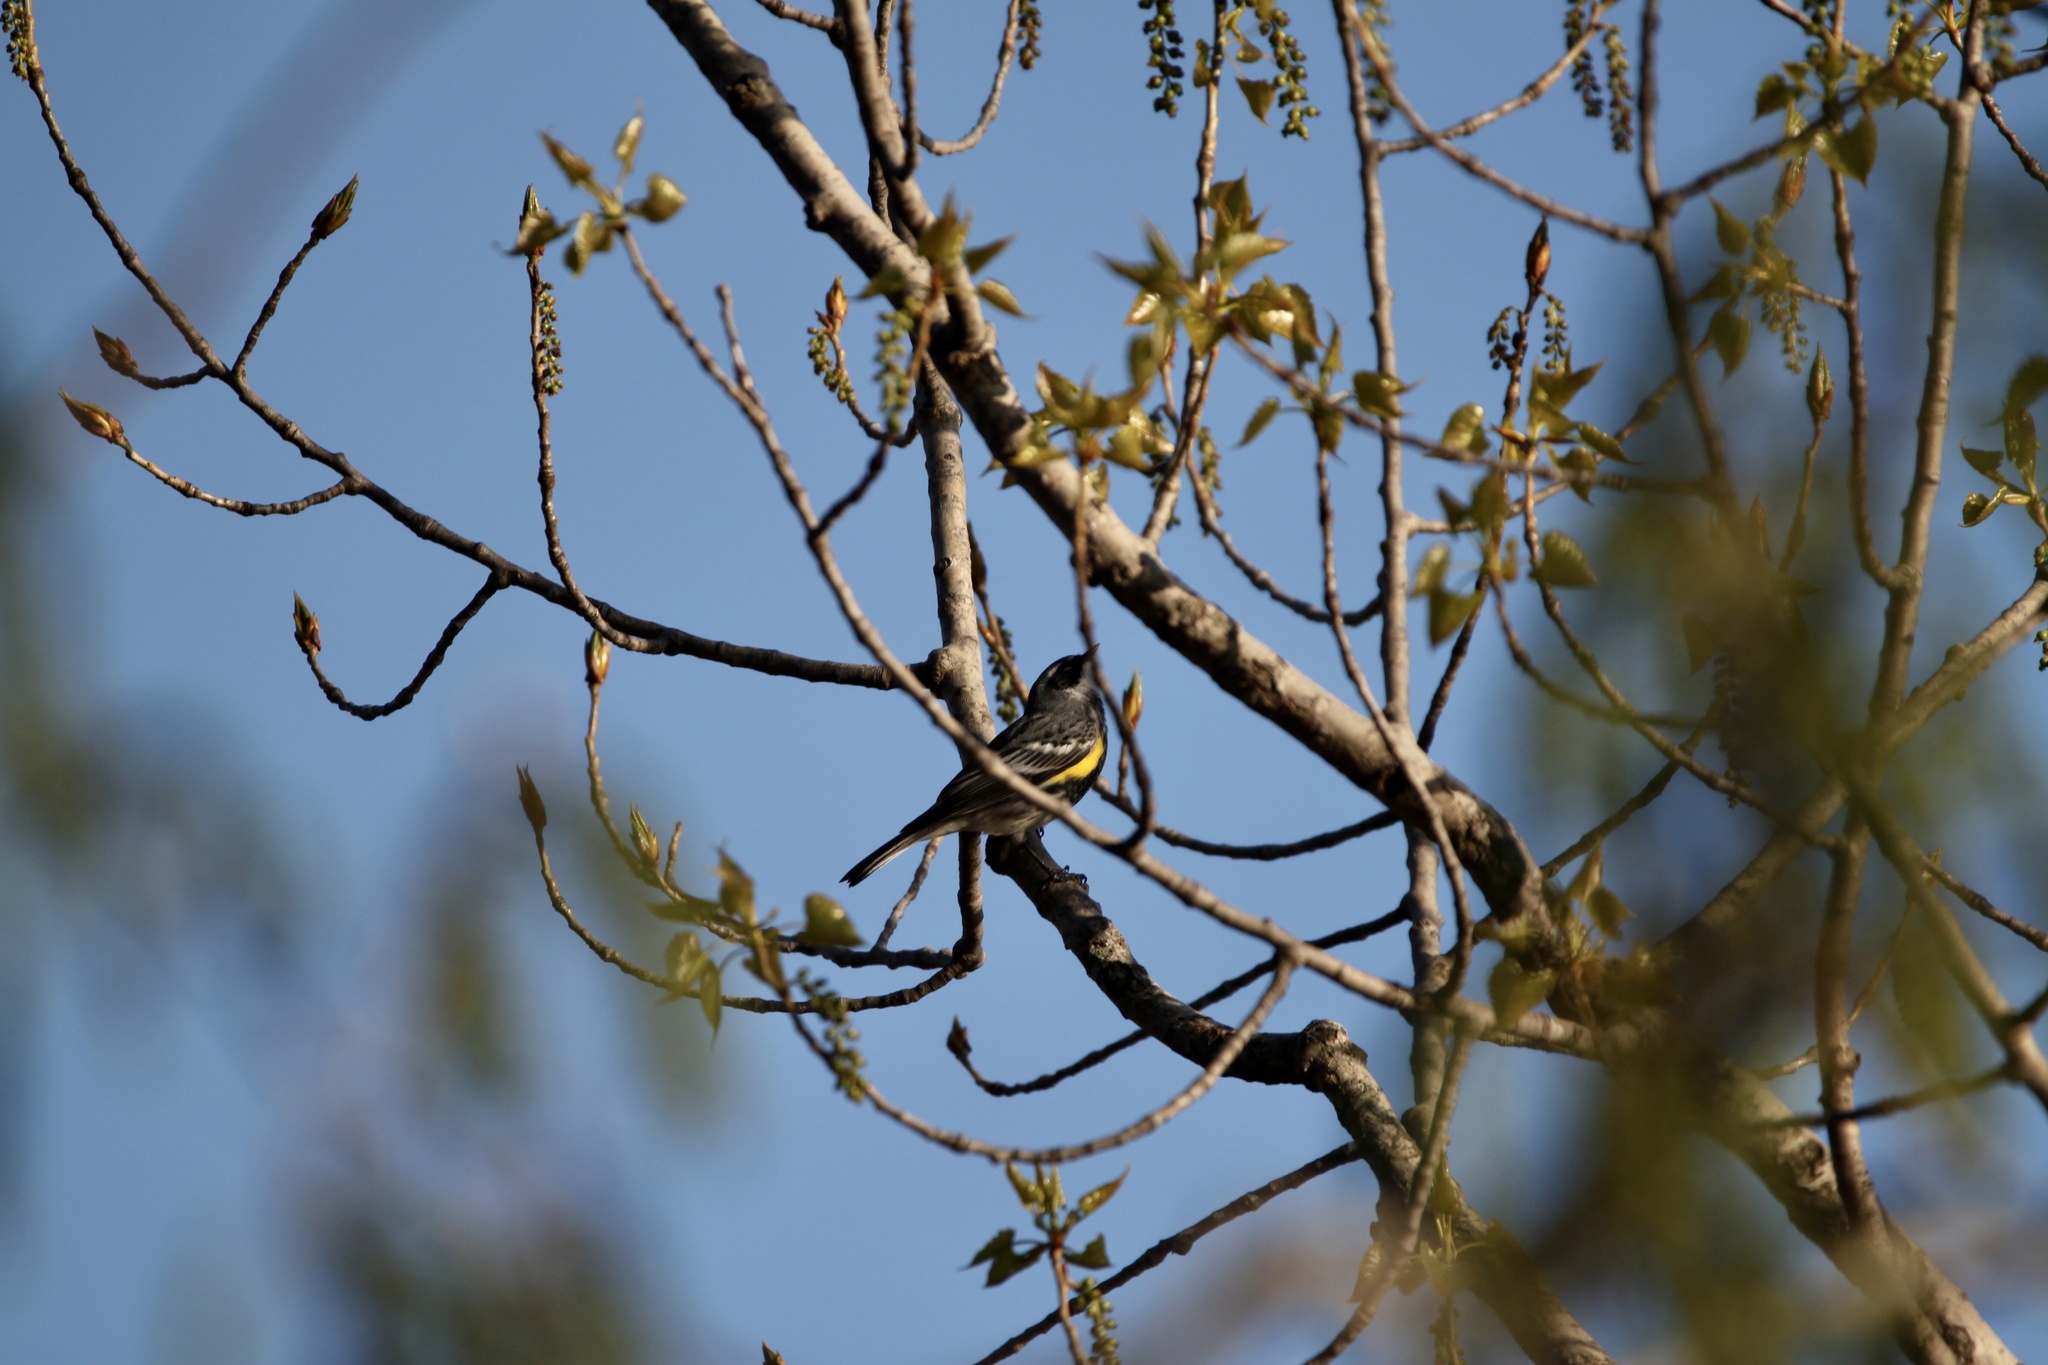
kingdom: Animalia
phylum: Chordata
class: Aves
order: Passeriformes
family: Parulidae
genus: Setophaga
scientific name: Setophaga coronata
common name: Myrtle warbler
